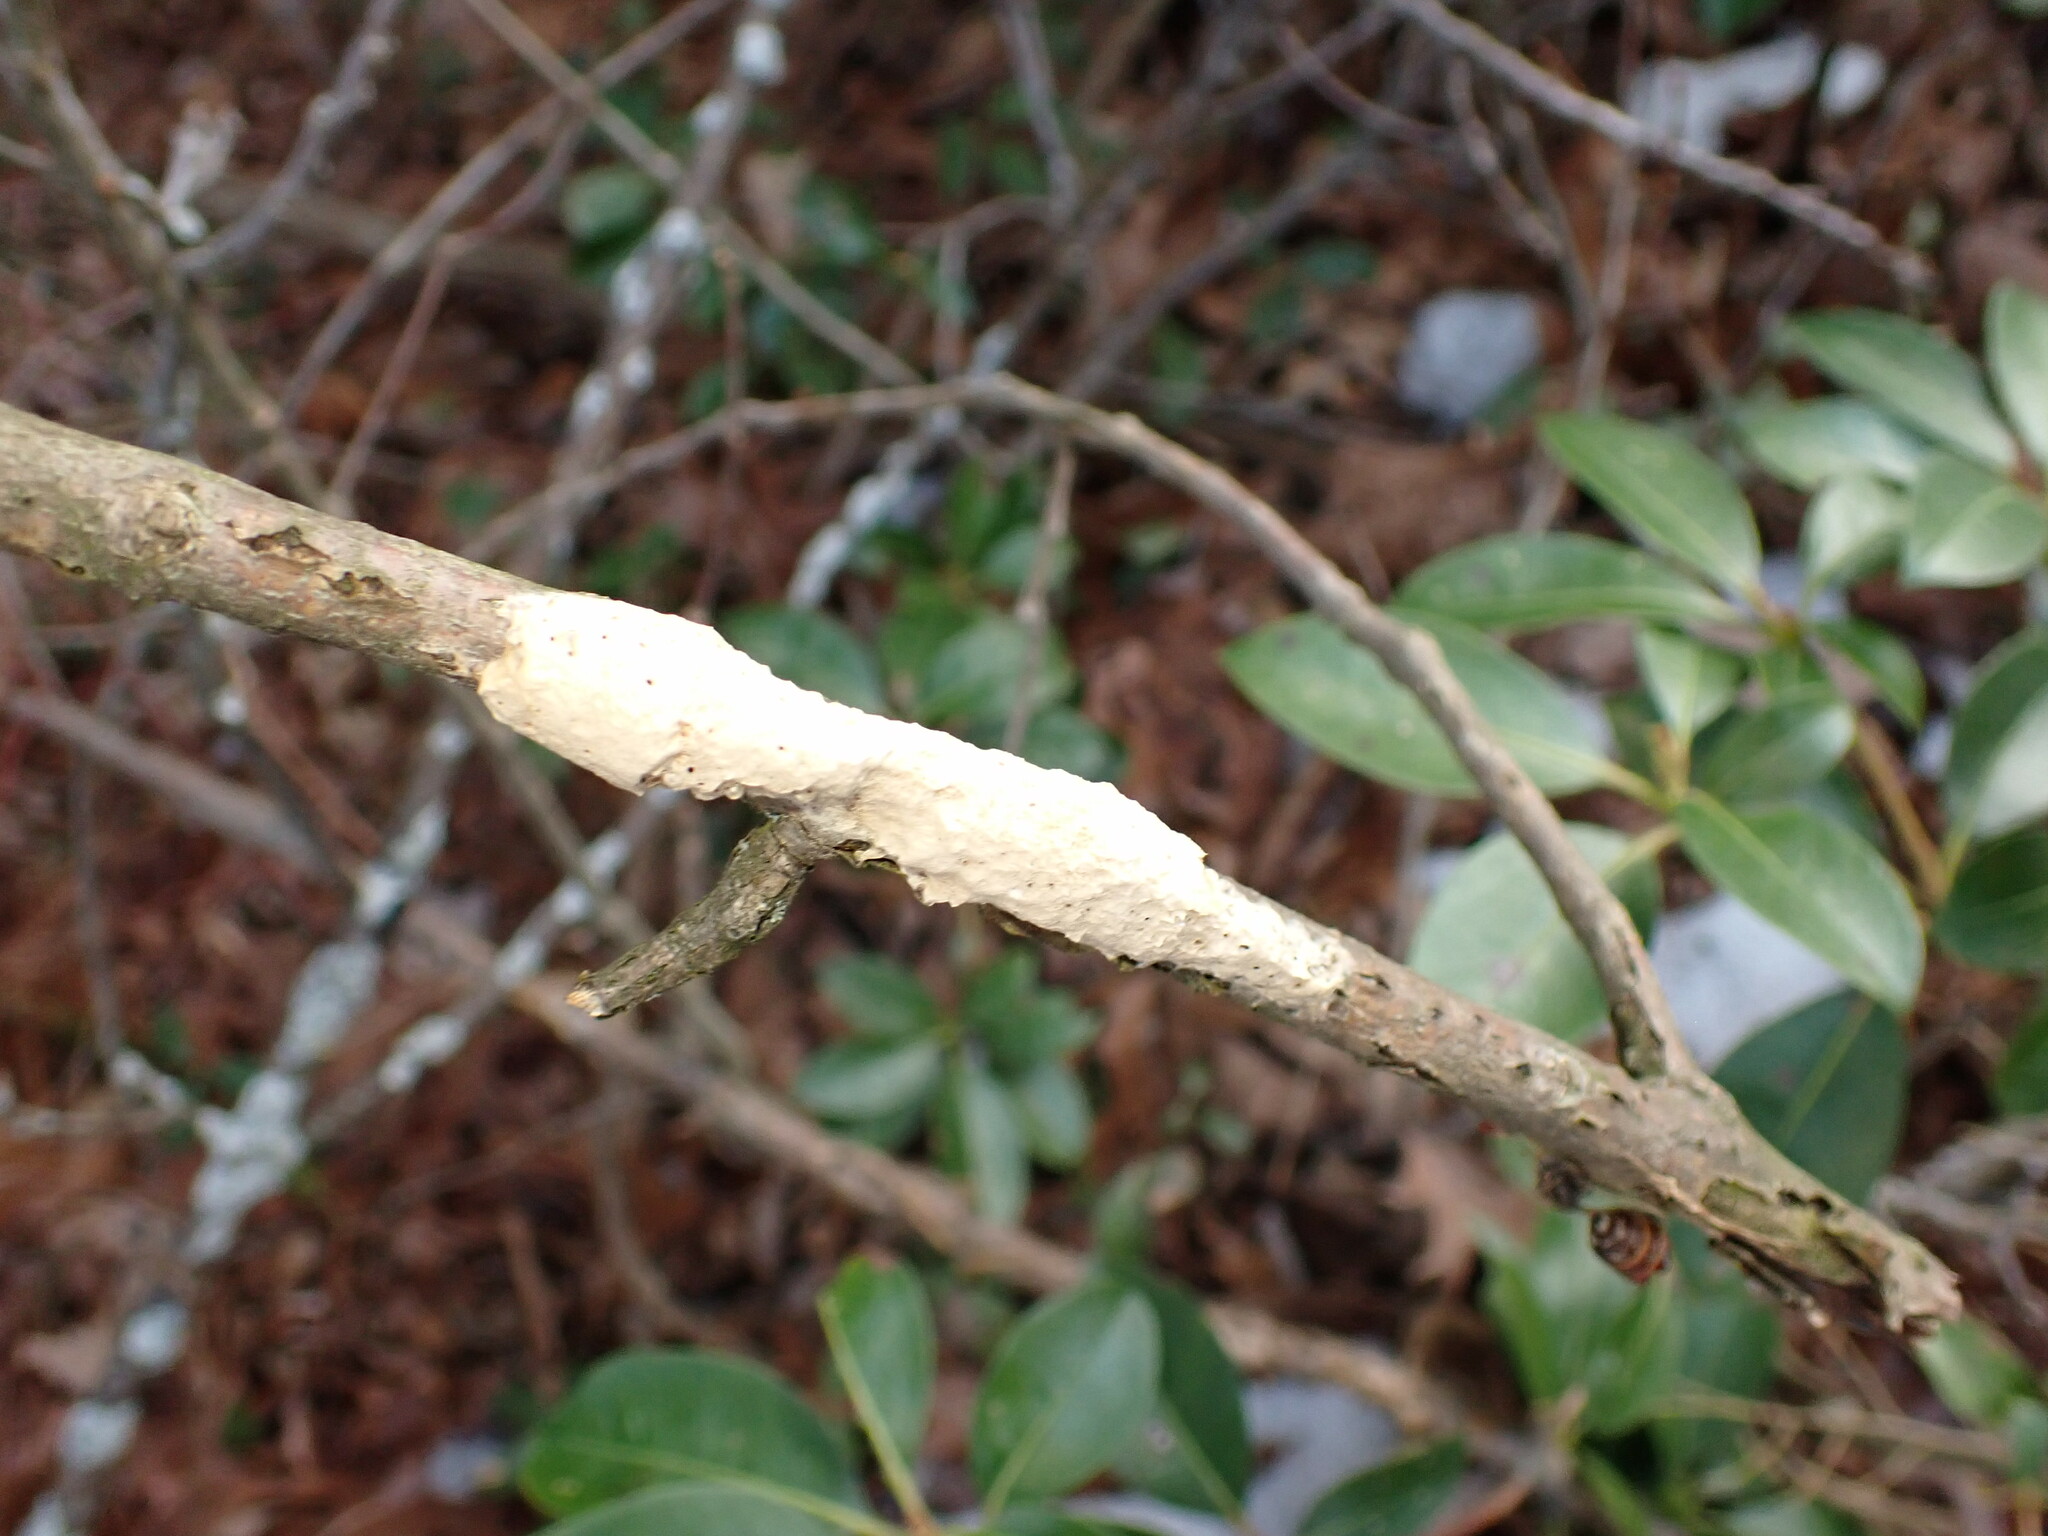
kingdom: Animalia
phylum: Arthropoda
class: Insecta
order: Lepidoptera
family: Erebidae
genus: Lymantria
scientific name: Lymantria dispar
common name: Gypsy moth
